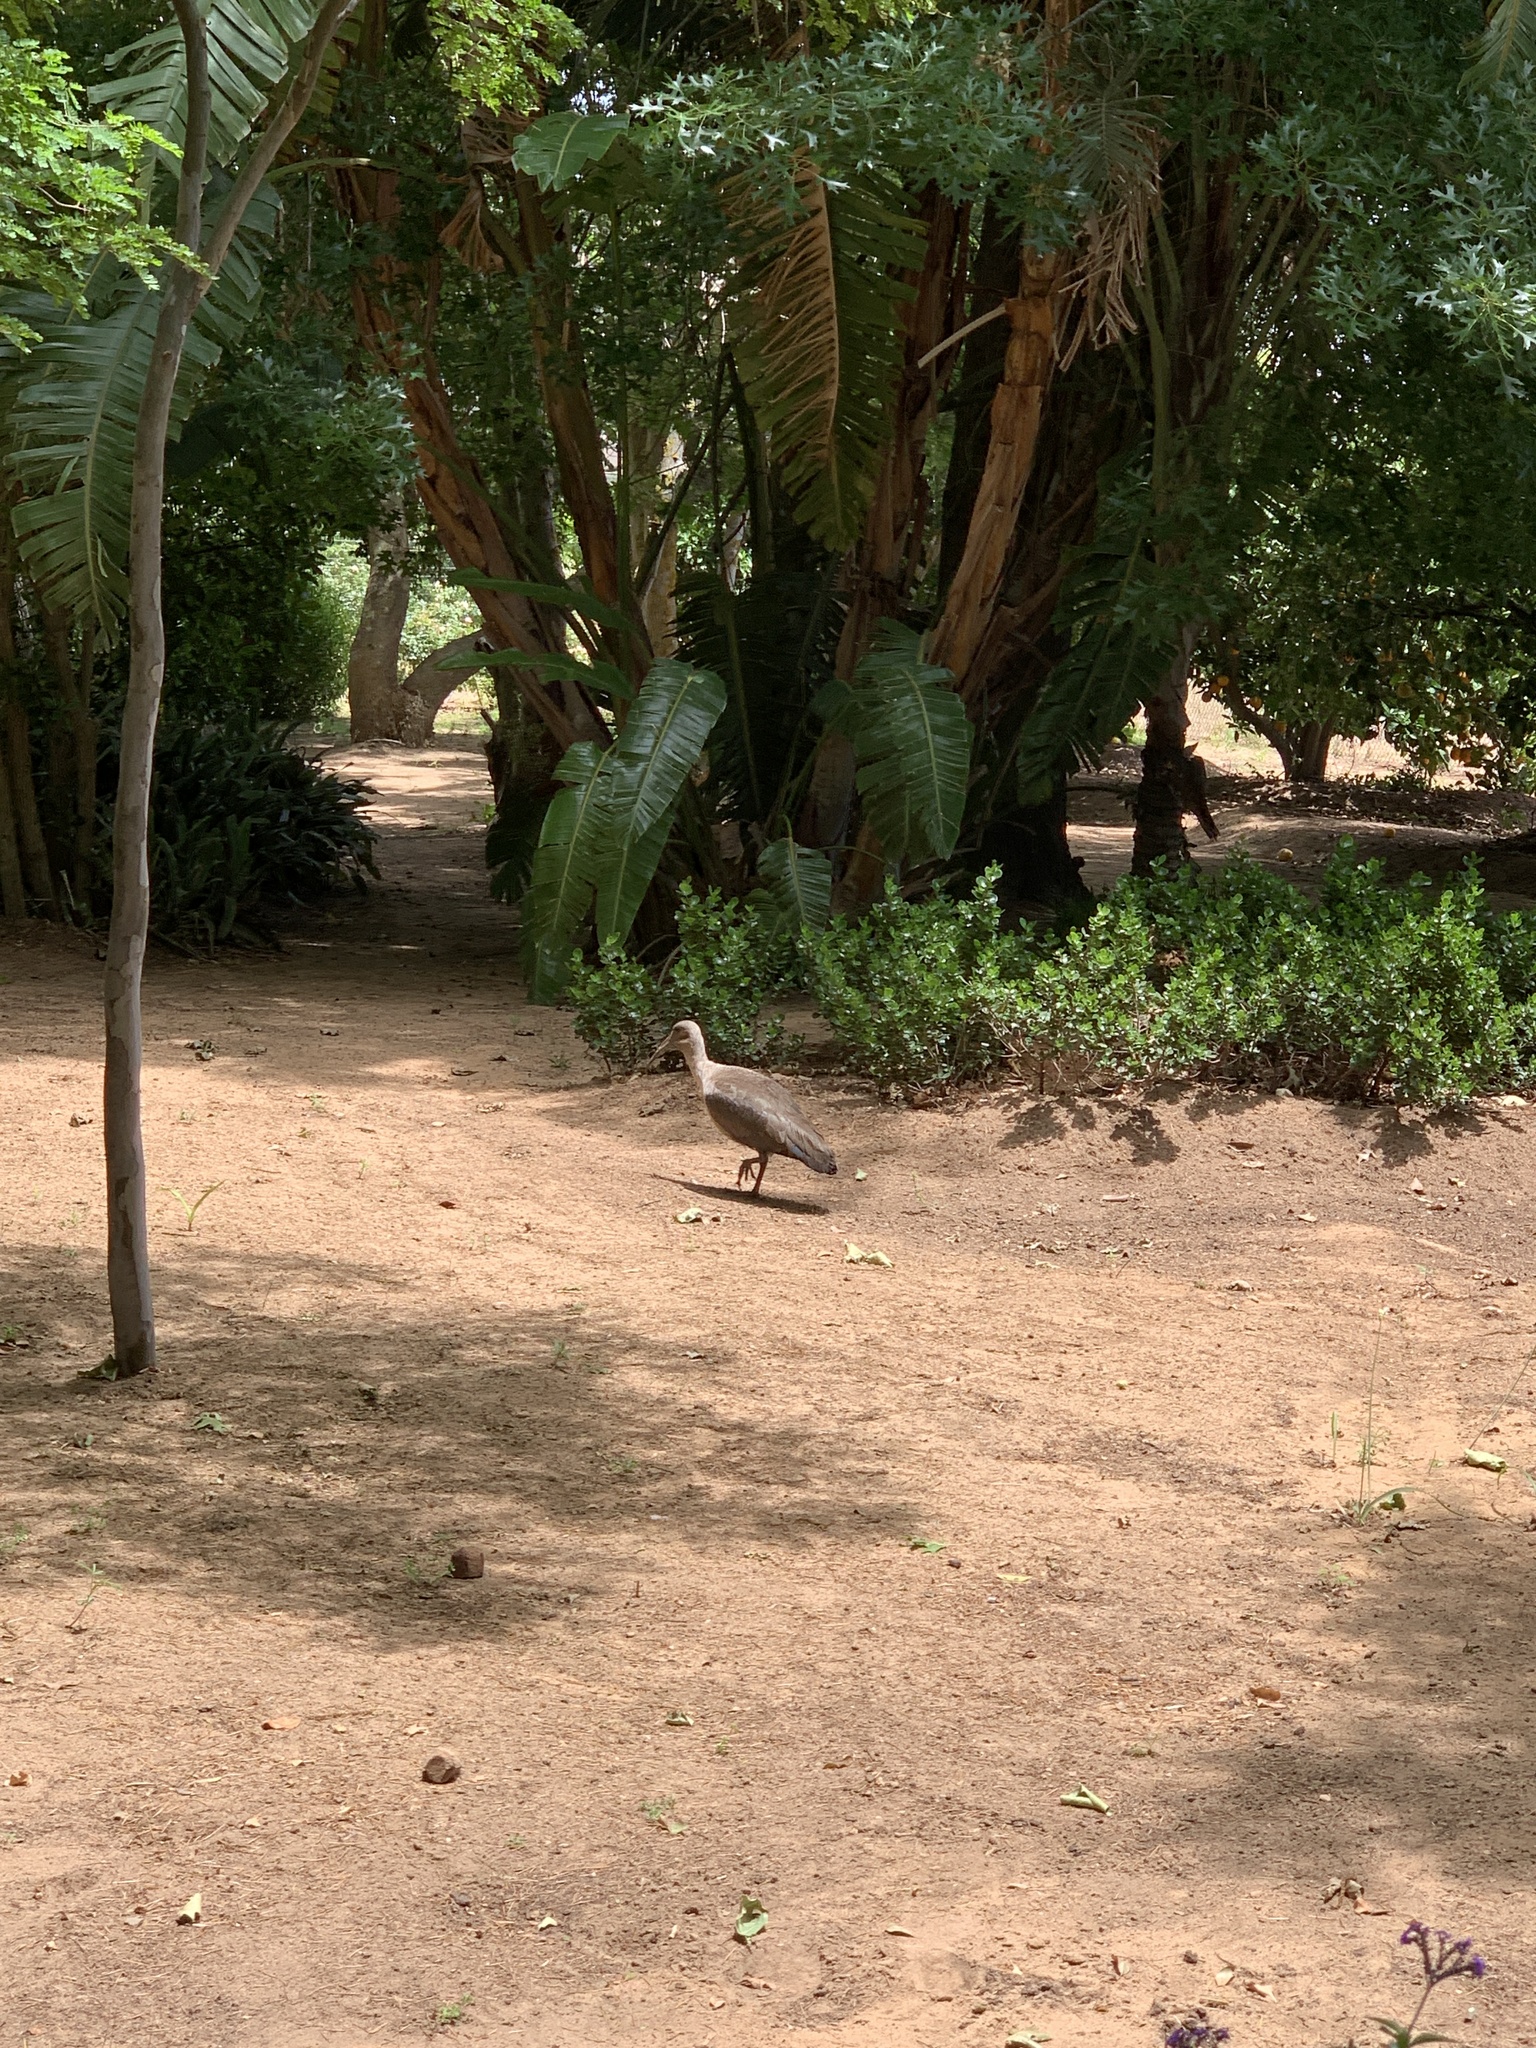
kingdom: Animalia
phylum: Chordata
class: Aves
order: Pelecaniformes
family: Threskiornithidae
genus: Bostrychia
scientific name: Bostrychia hagedash
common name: Hadada ibis
